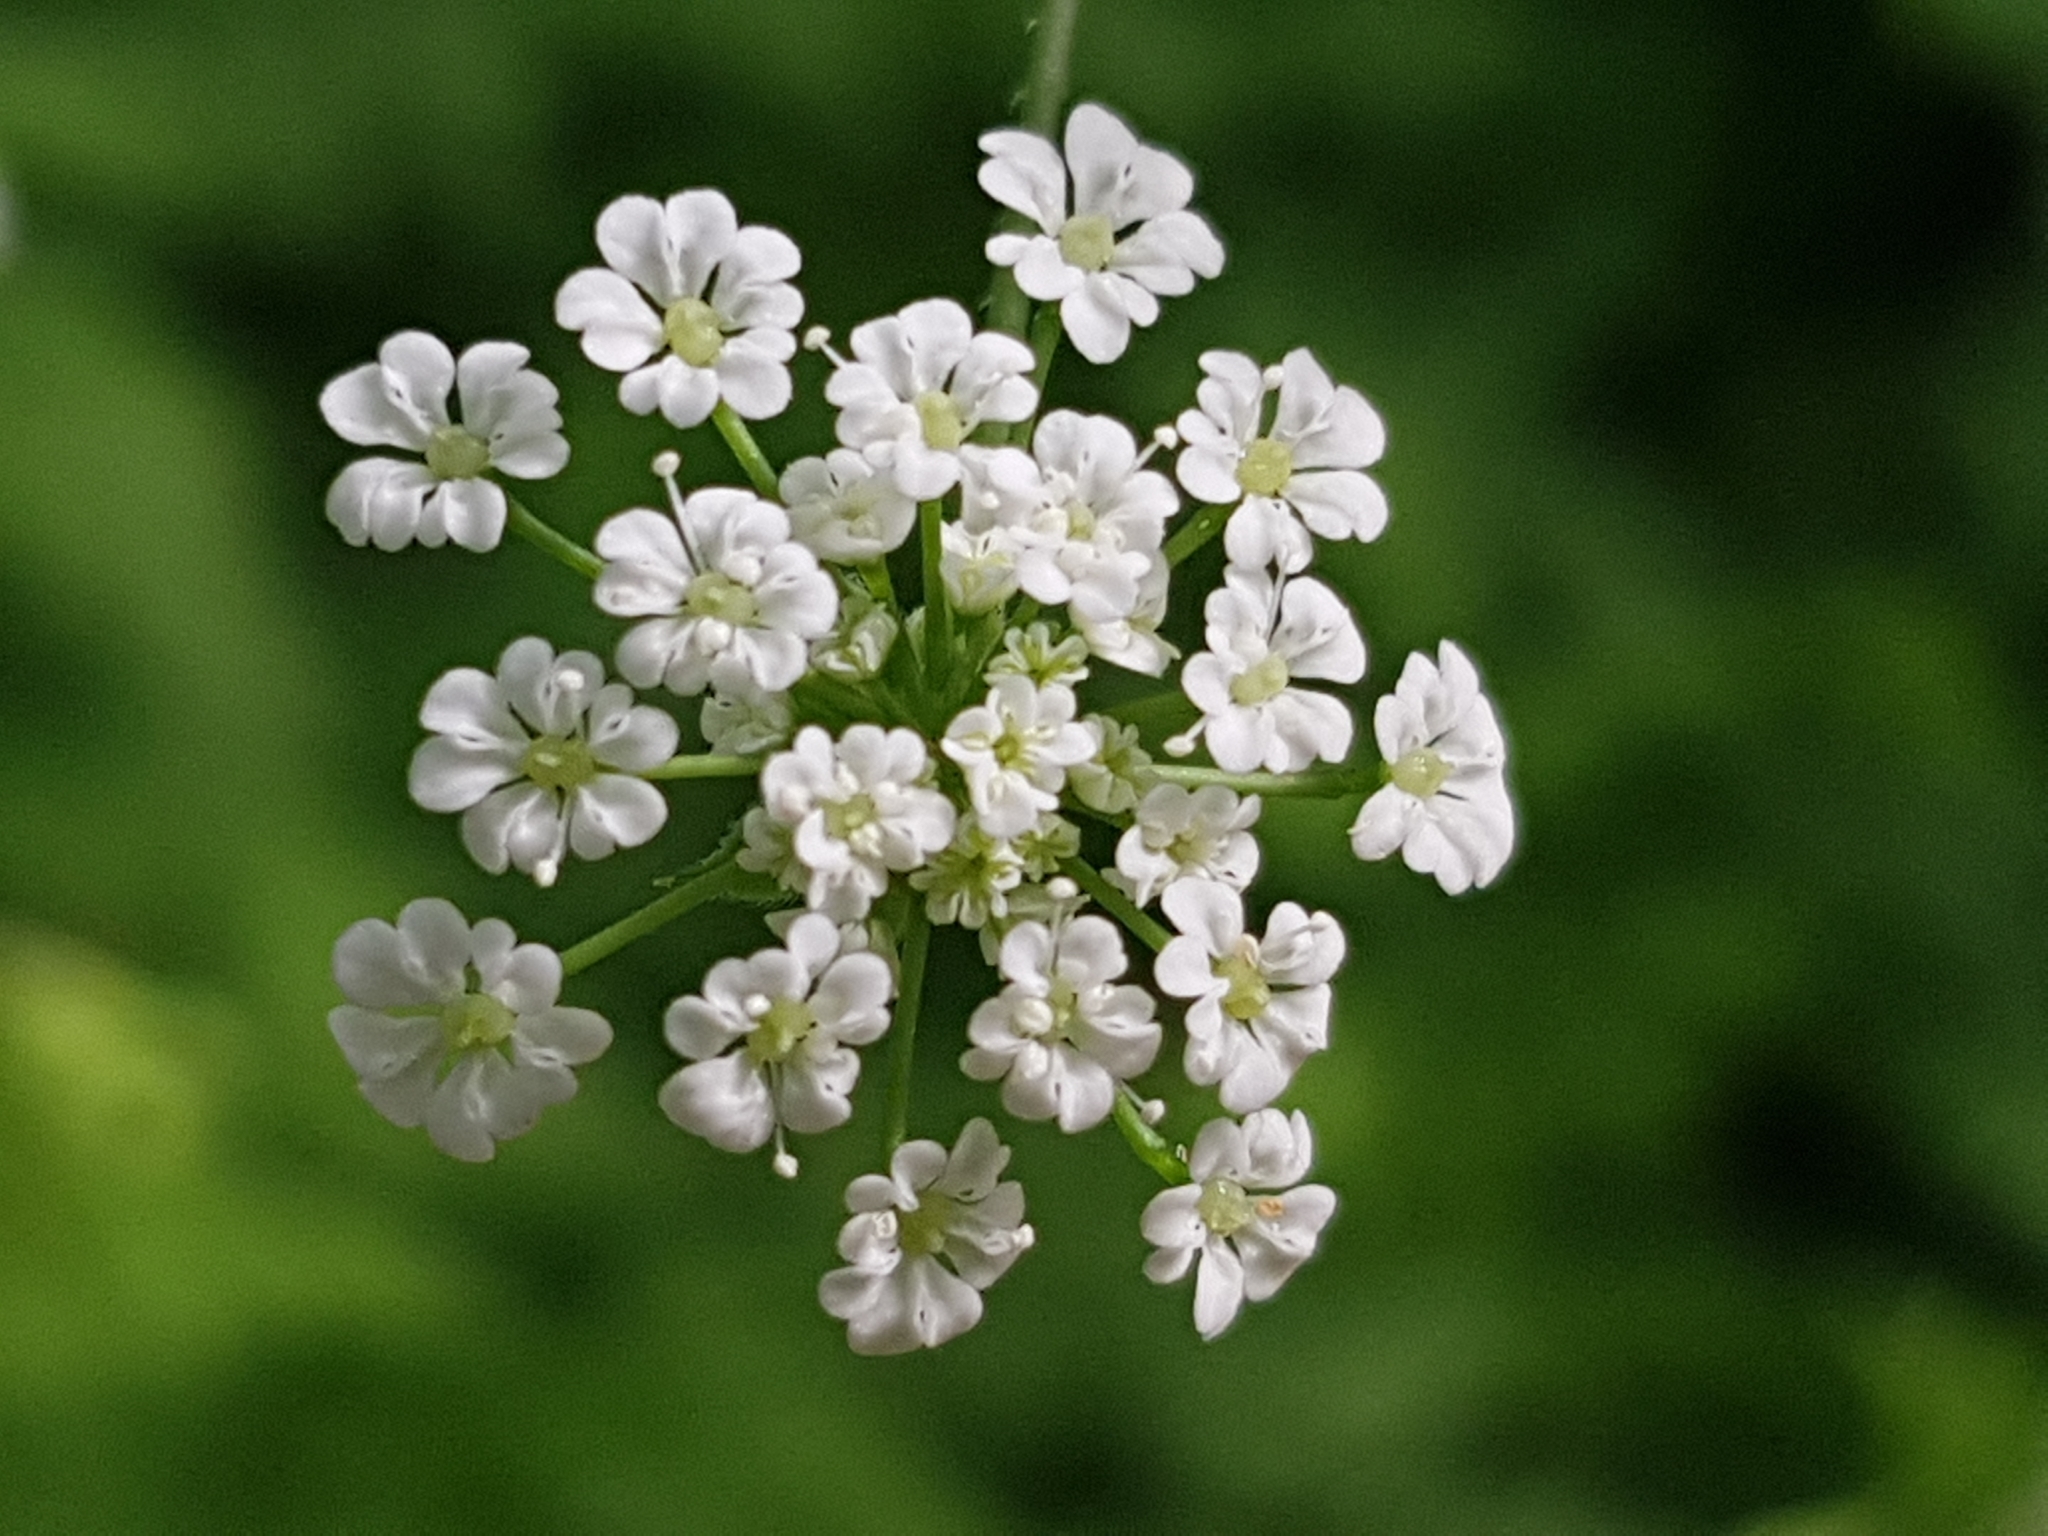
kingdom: Plantae
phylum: Tracheophyta
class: Magnoliopsida
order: Apiales
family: Apiaceae
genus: Chaerophyllum
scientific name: Chaerophyllum temulum
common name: Rough chervil
